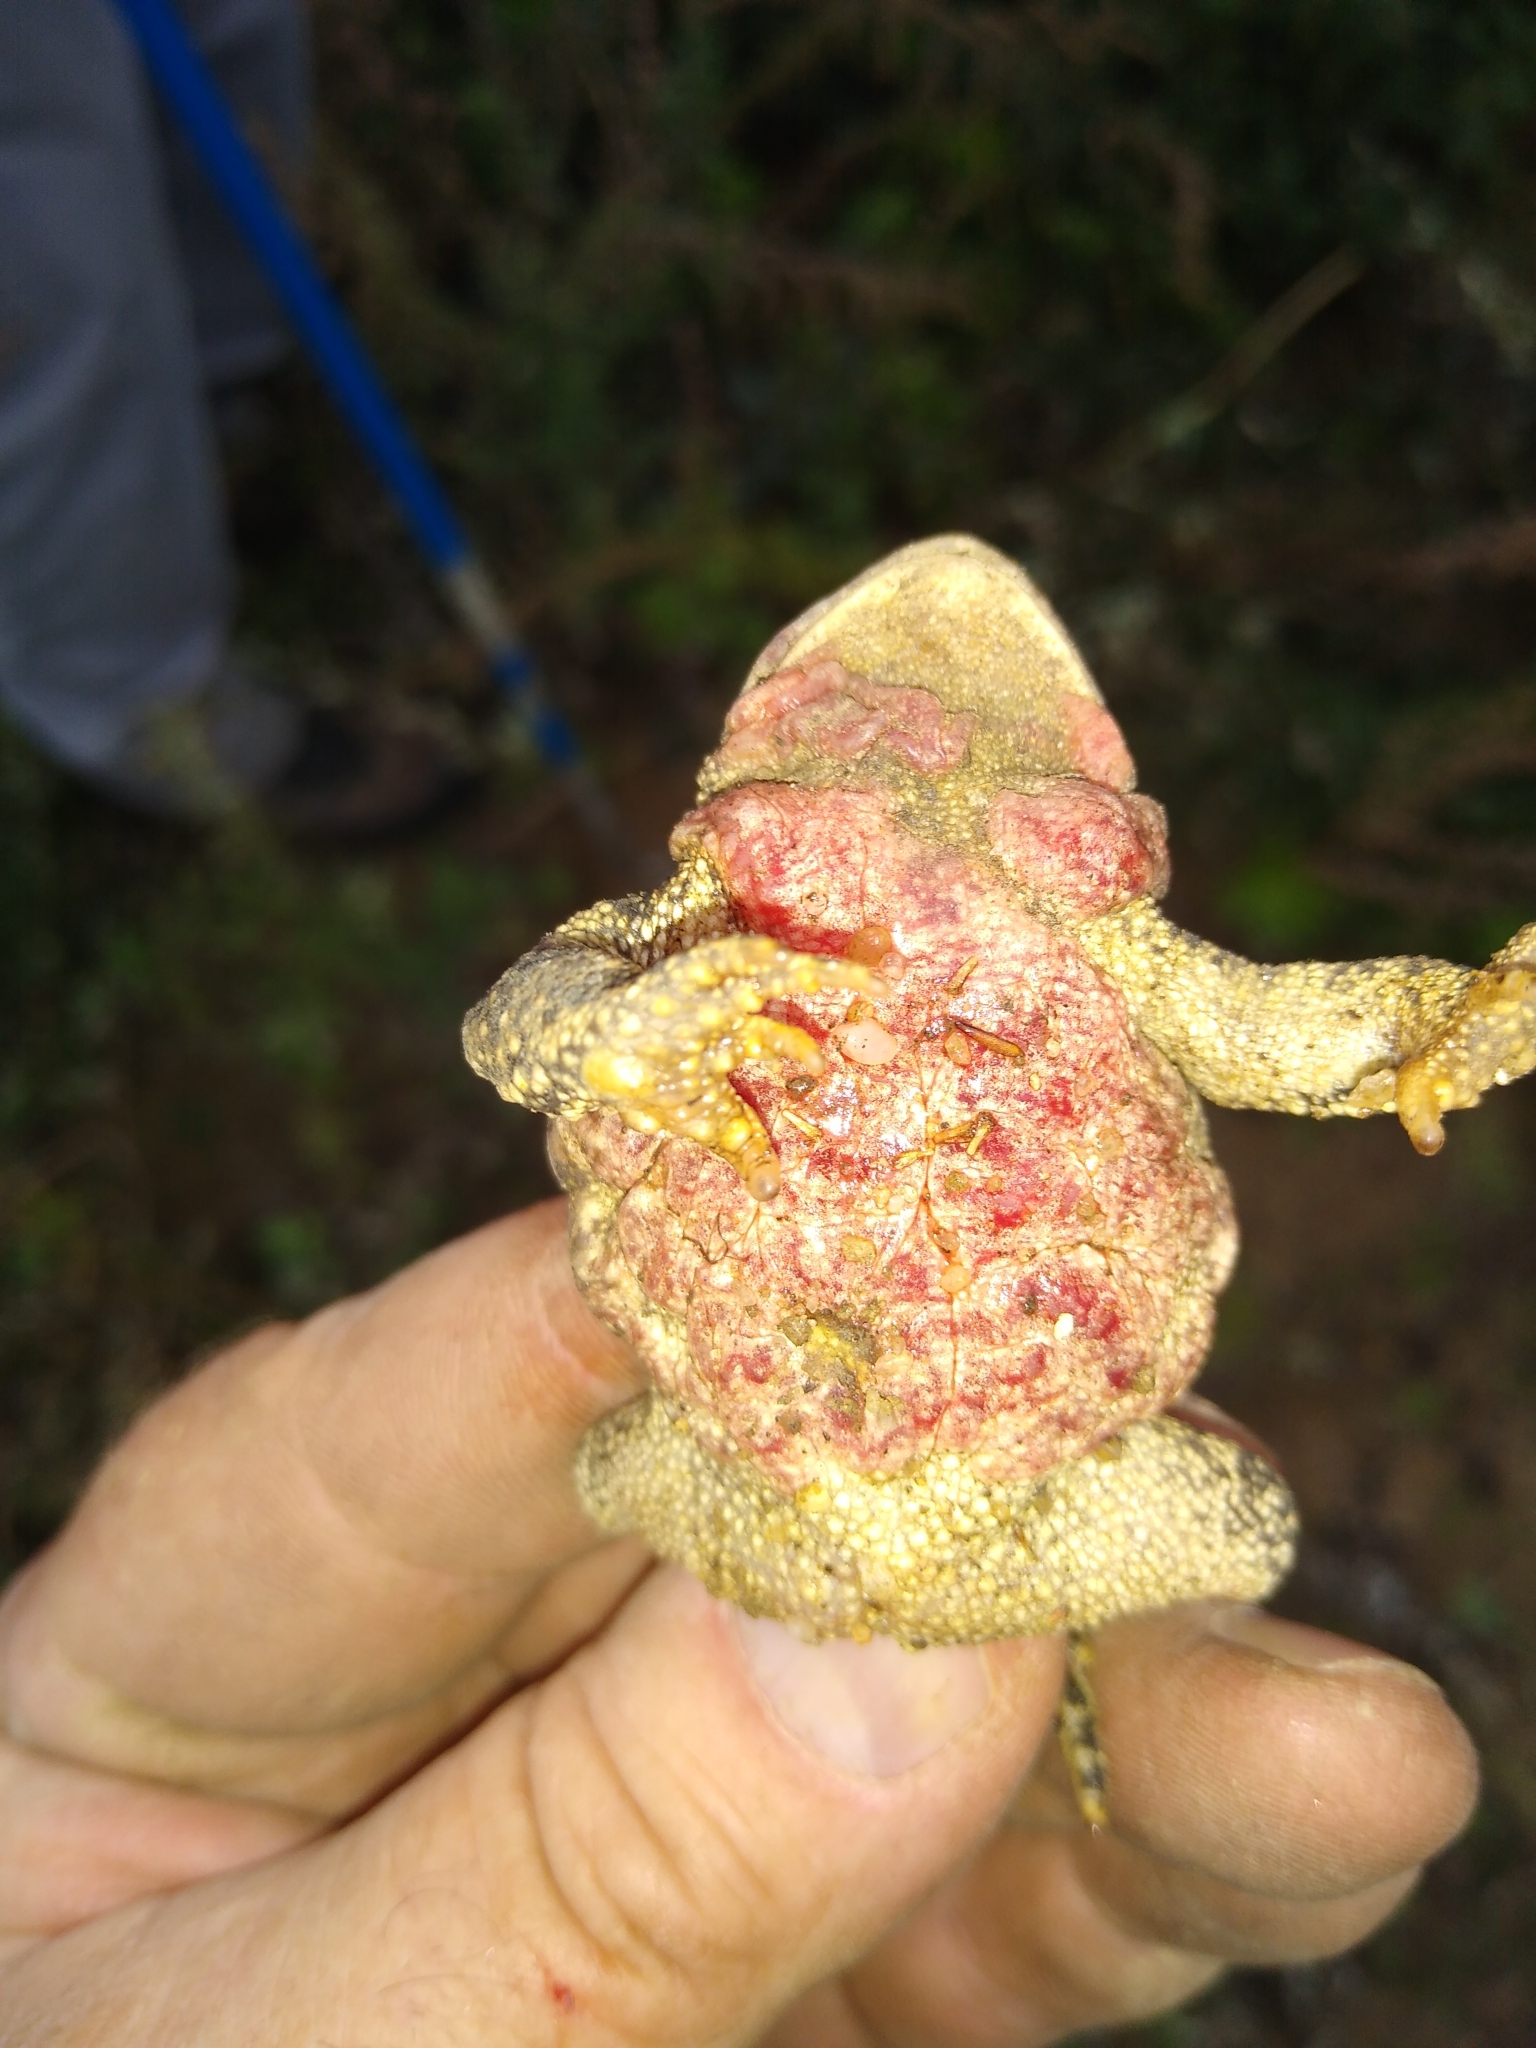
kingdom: Animalia
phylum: Chordata
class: Amphibia
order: Anura
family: Bufonidae
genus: Anaxyrus
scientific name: Anaxyrus americanus
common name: American toad
